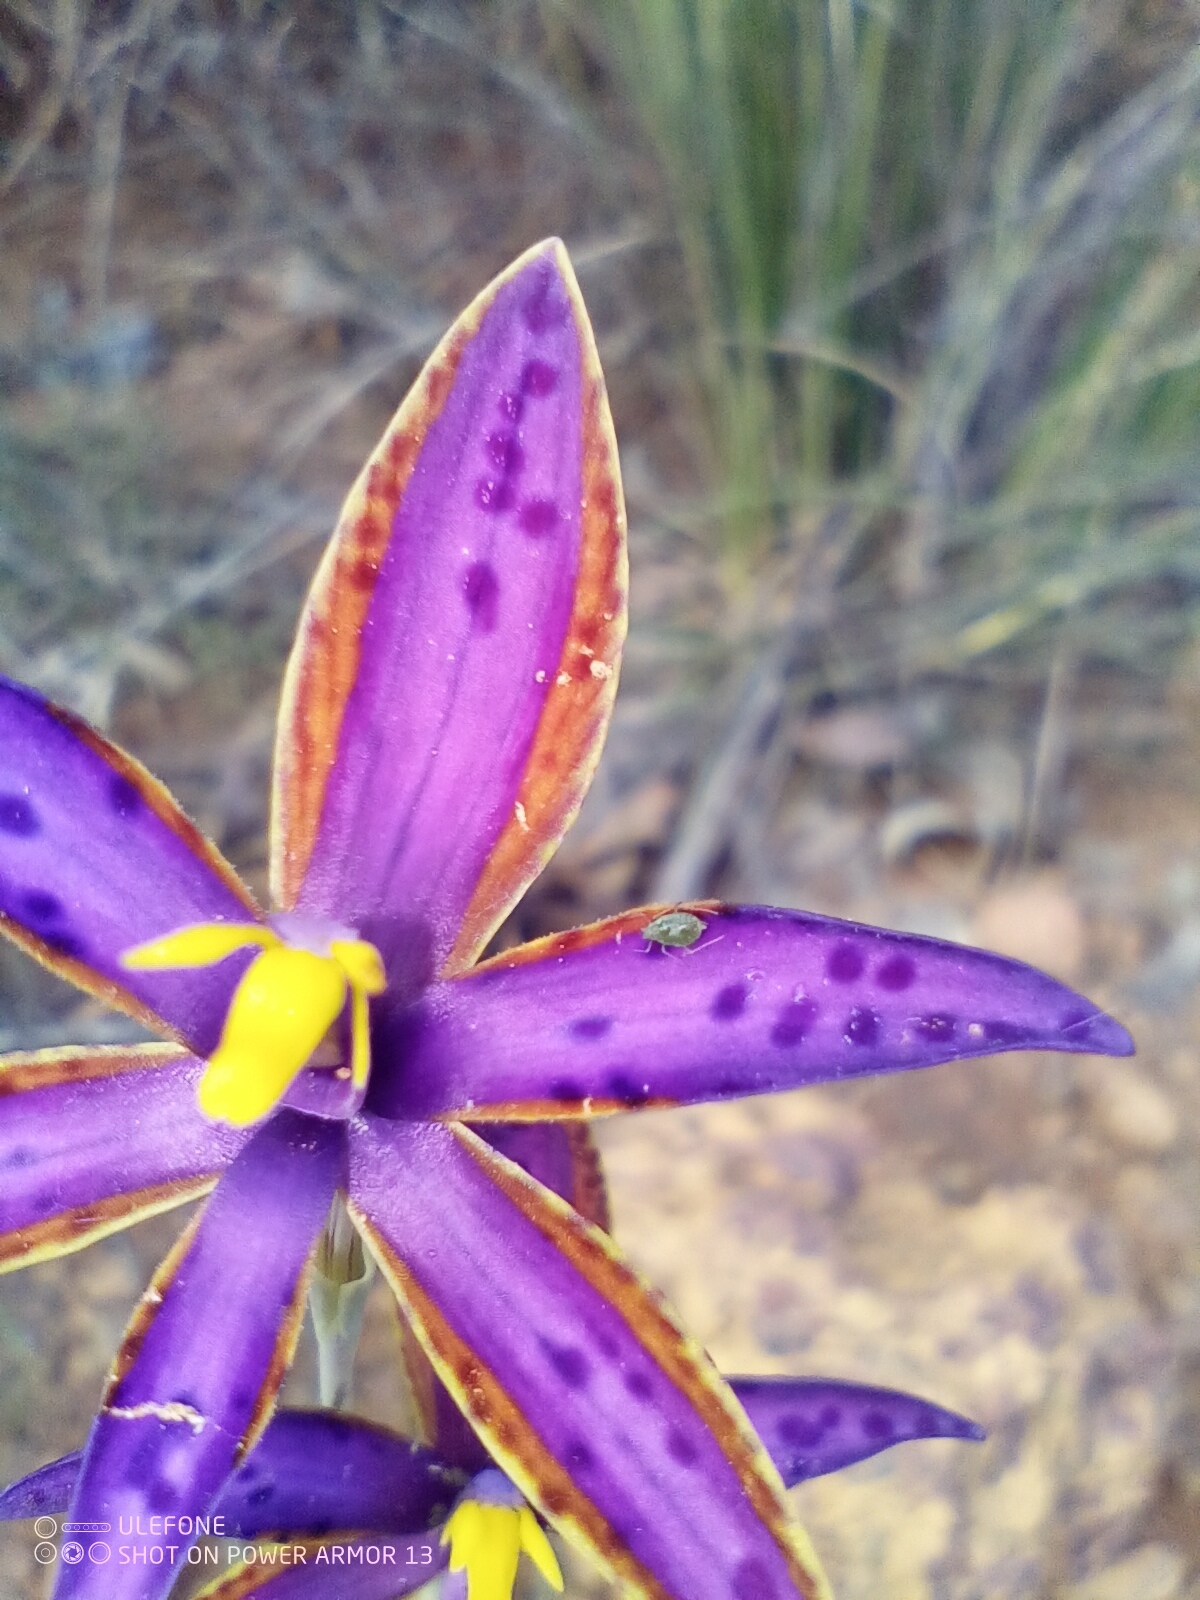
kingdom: Plantae
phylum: Tracheophyta
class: Liliopsida
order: Asparagales
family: Orchidaceae
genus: Thelymitra
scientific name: Thelymitra porphyrosticta
